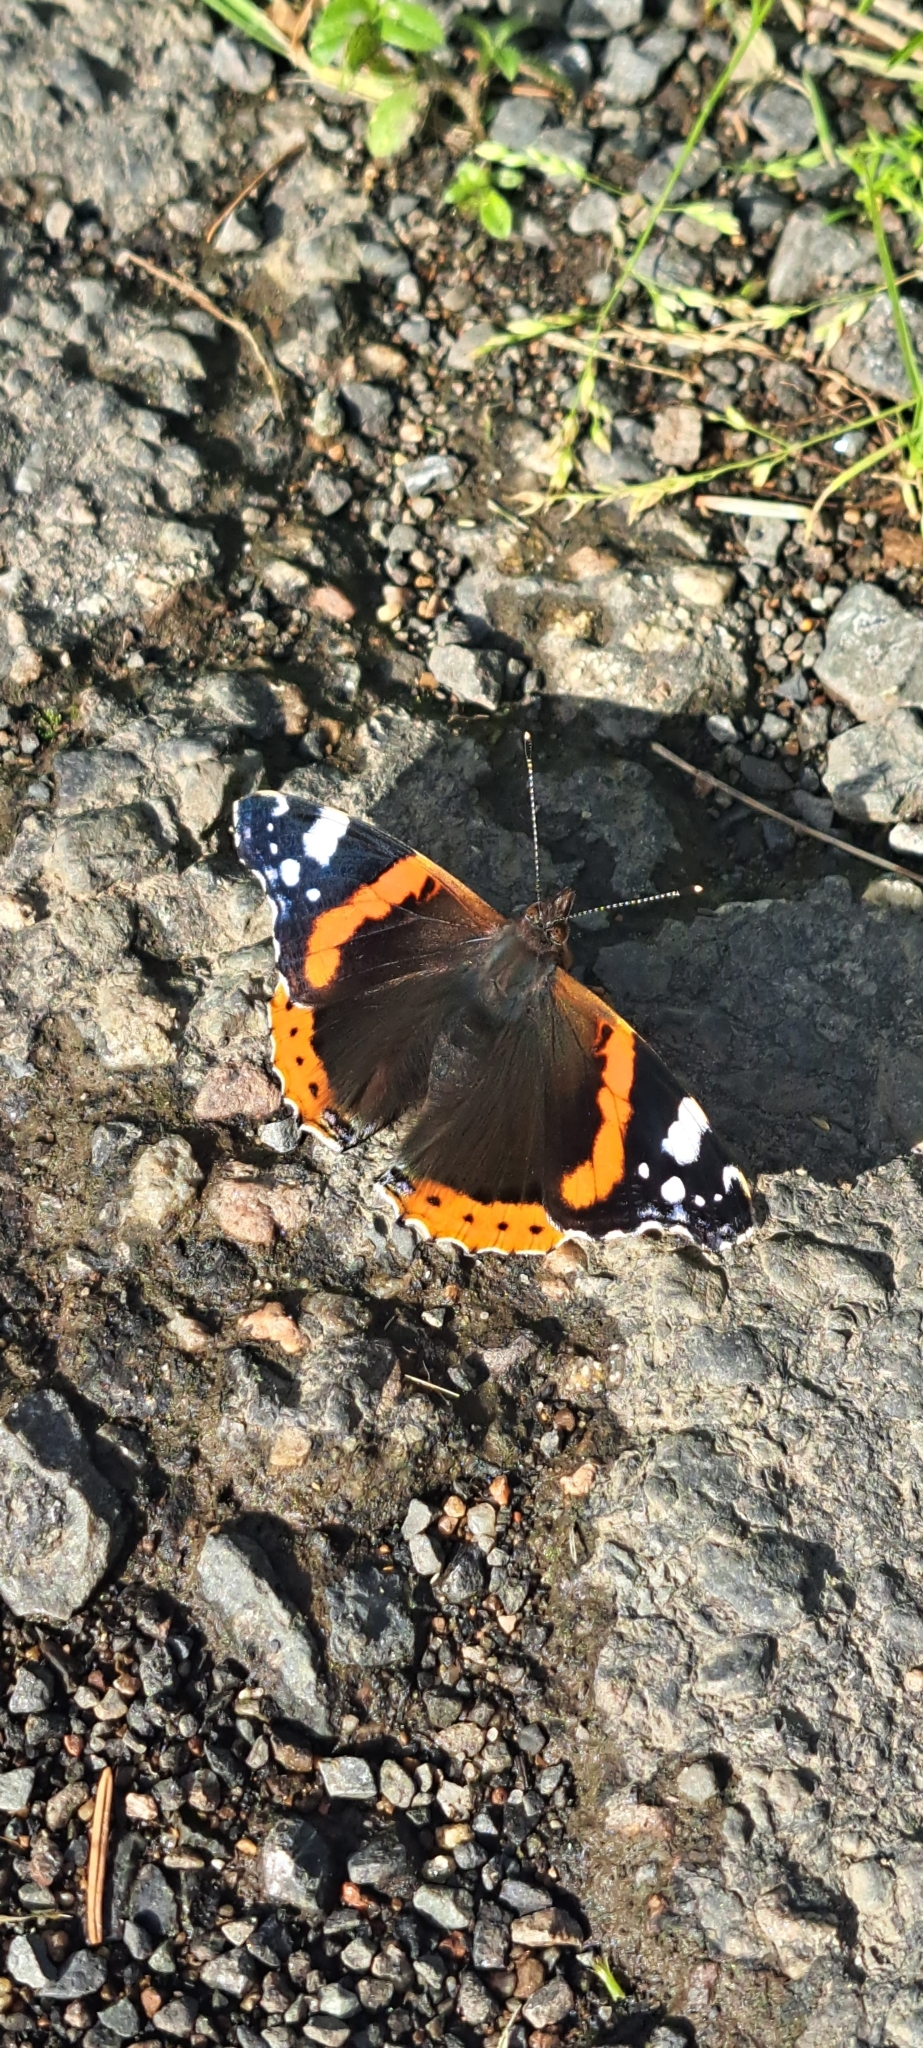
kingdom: Animalia
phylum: Arthropoda
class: Insecta
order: Lepidoptera
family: Nymphalidae
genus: Vanessa
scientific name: Vanessa atalanta
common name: Red admiral
